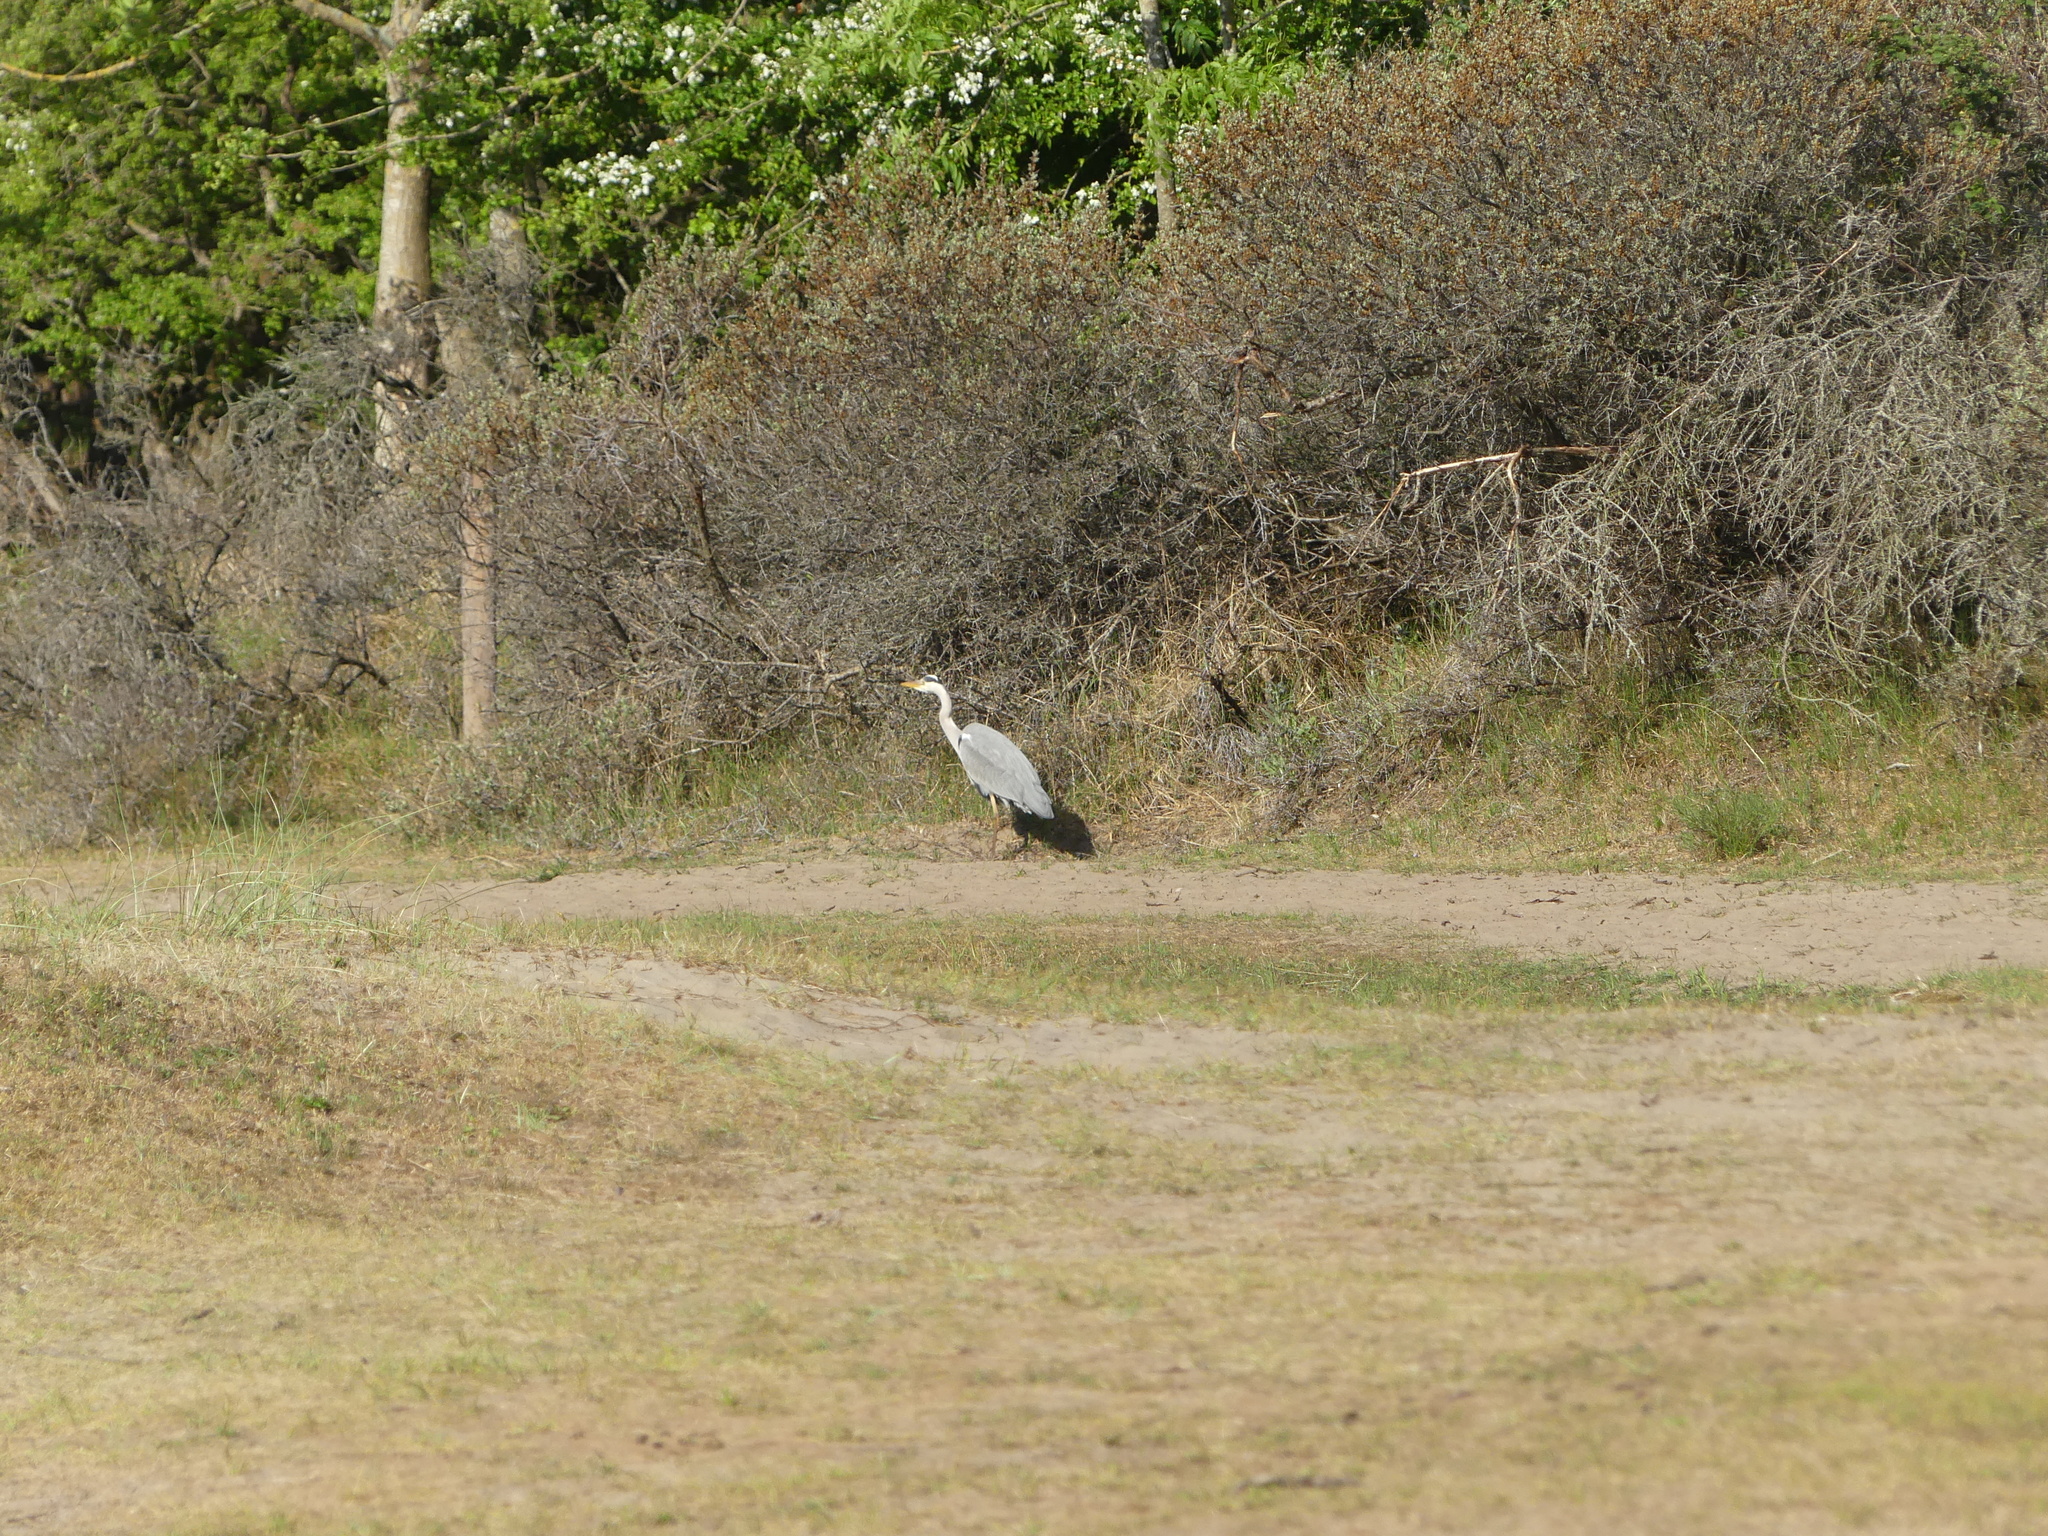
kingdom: Animalia
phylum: Chordata
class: Aves
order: Pelecaniformes
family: Ardeidae
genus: Ardea
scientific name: Ardea cinerea
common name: Grey heron
